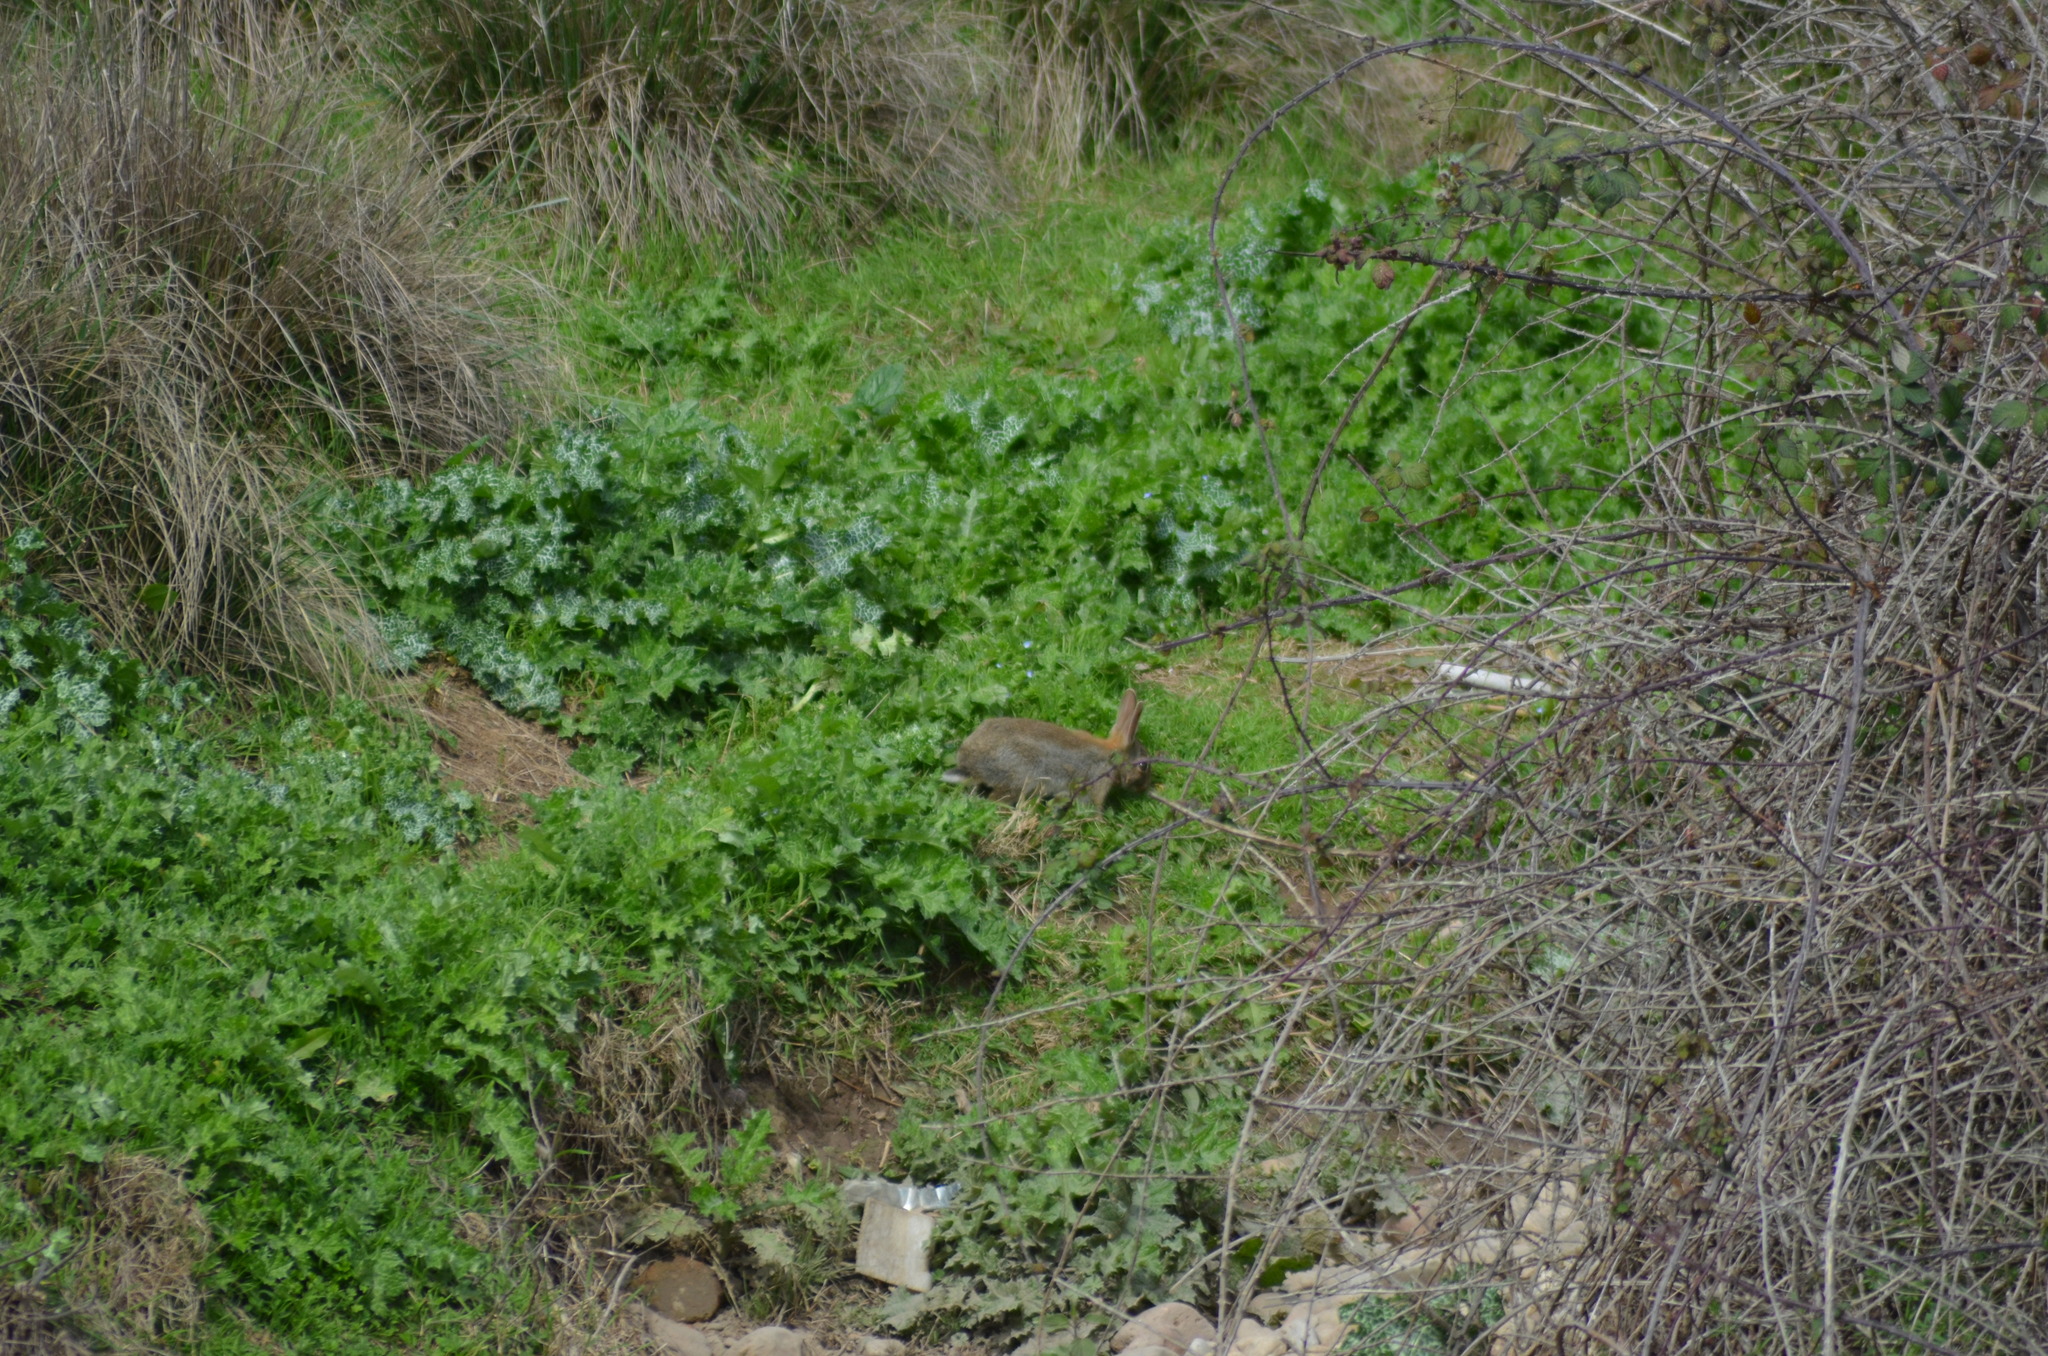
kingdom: Animalia
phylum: Chordata
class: Mammalia
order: Lagomorpha
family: Leporidae
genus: Oryctolagus
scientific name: Oryctolagus cuniculus
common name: European rabbit
